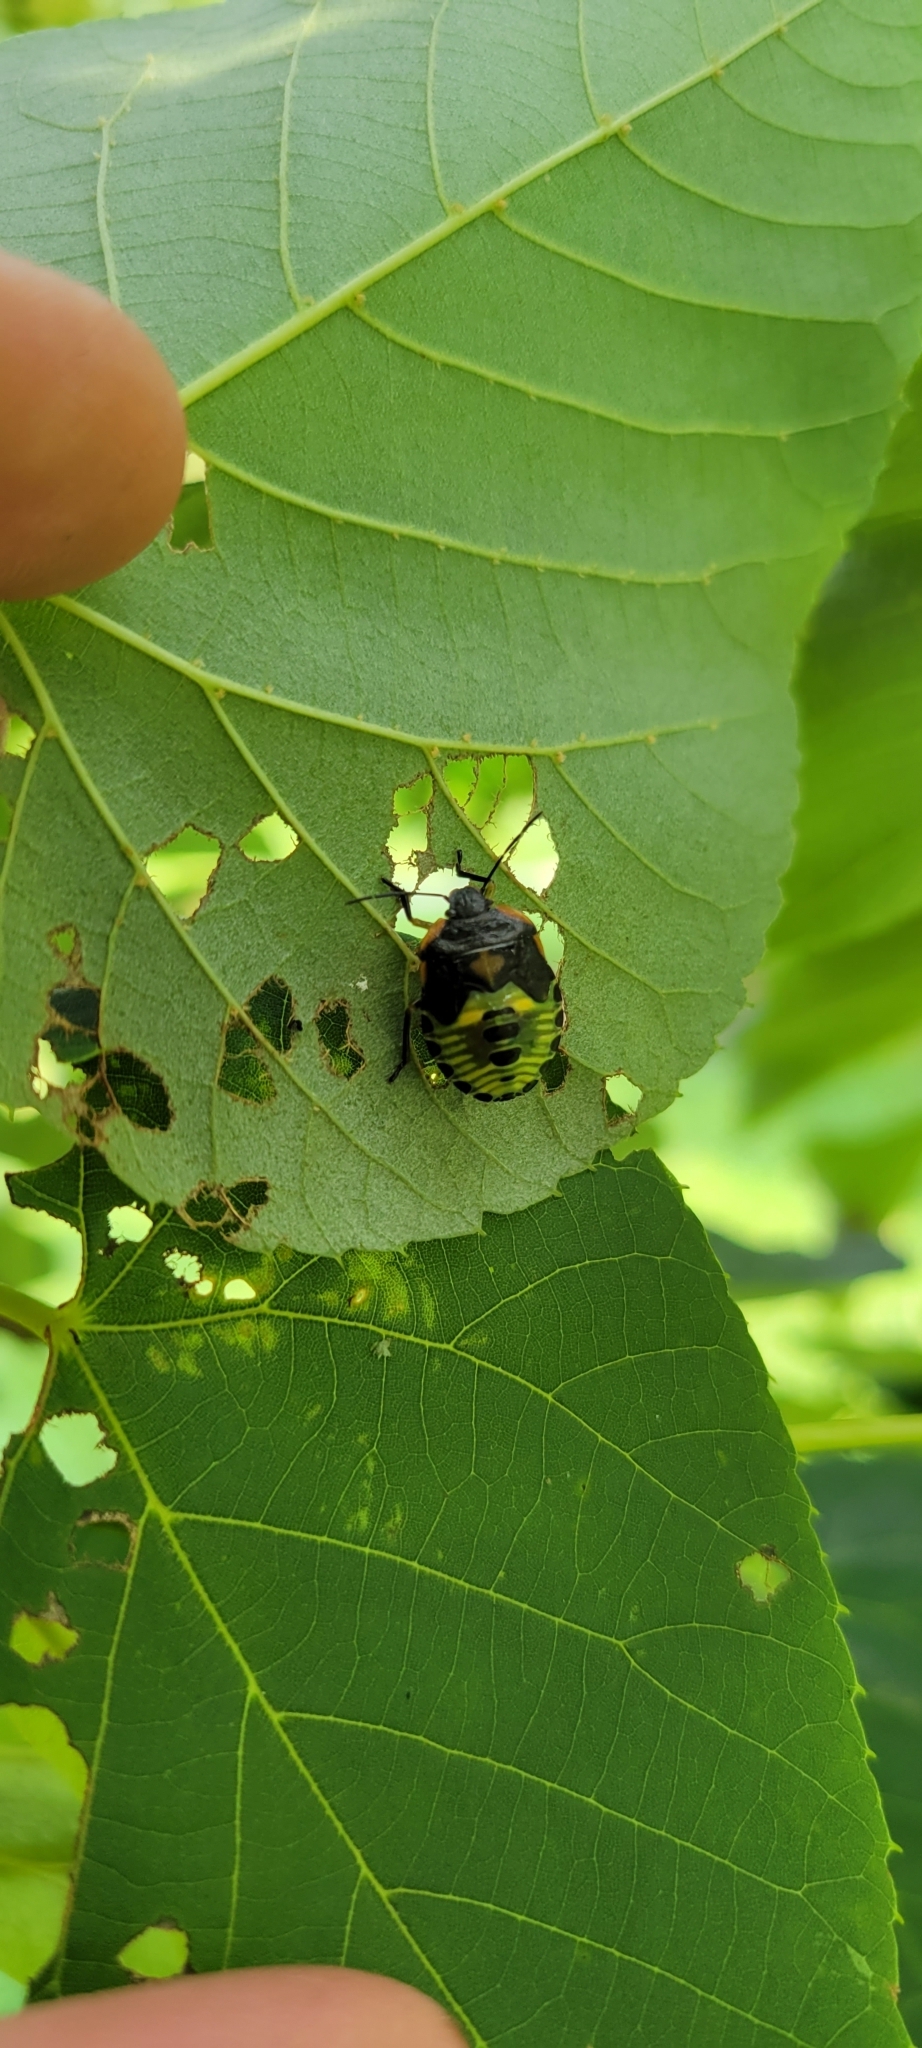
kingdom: Animalia
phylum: Arthropoda
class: Insecta
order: Hemiptera
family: Pentatomidae
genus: Chinavia
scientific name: Chinavia hilaris
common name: Green stink bug
